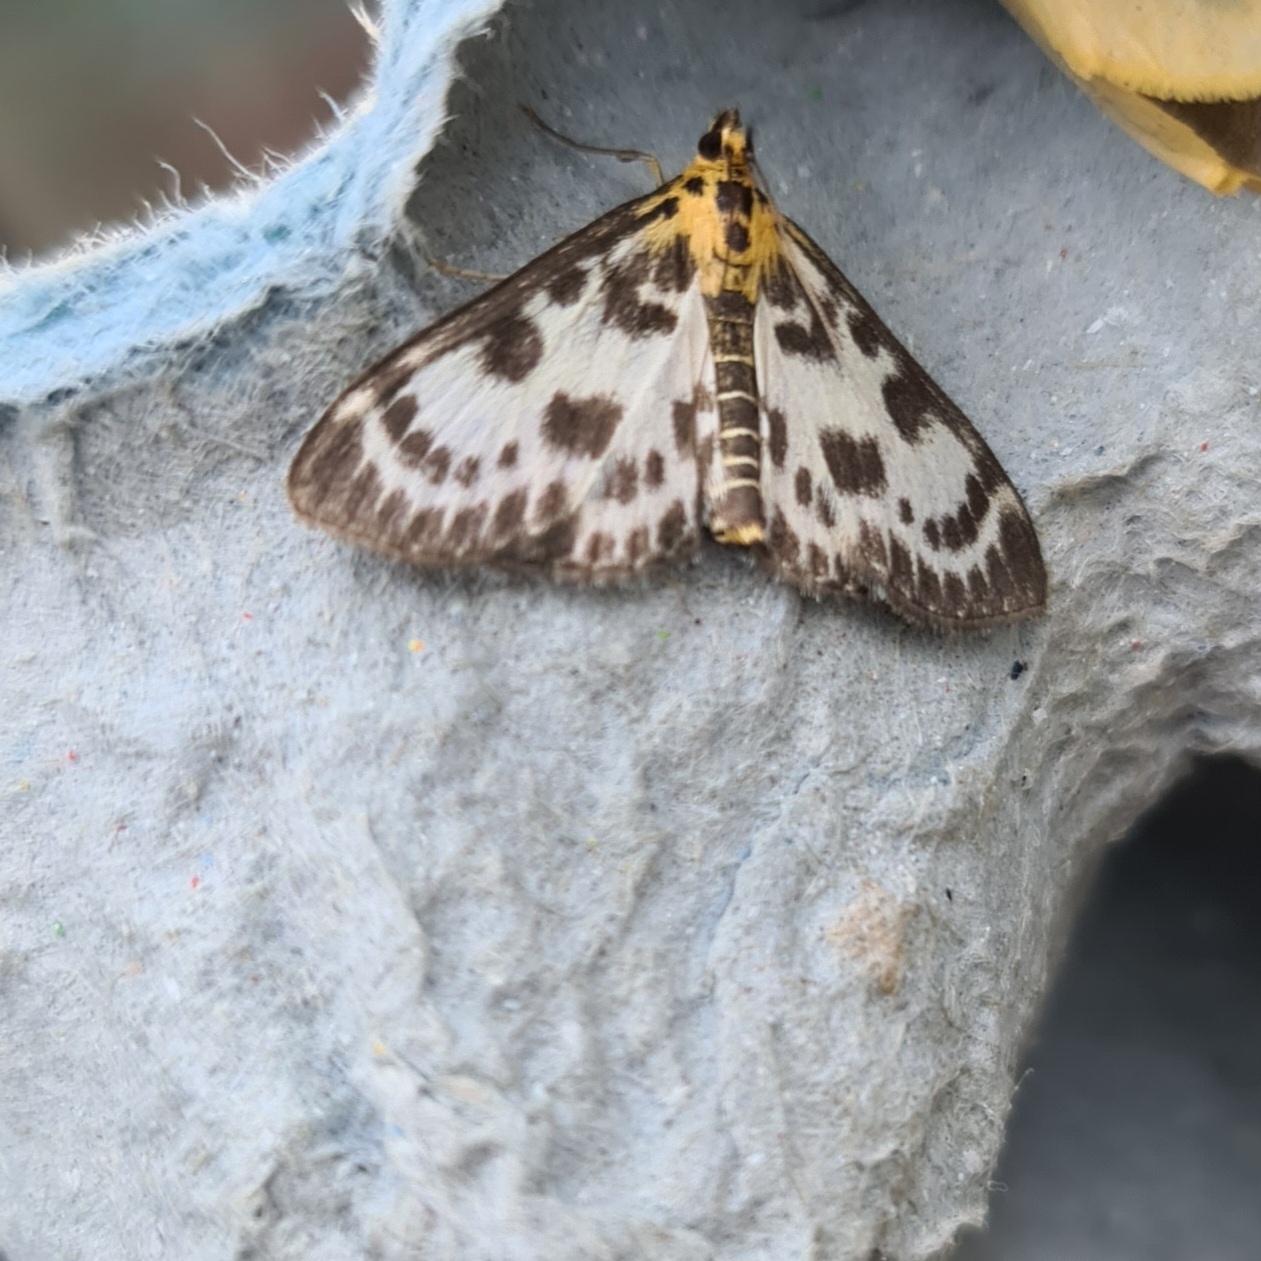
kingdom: Animalia
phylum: Arthropoda
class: Insecta
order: Lepidoptera
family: Crambidae
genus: Anania
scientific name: Anania hortulata
